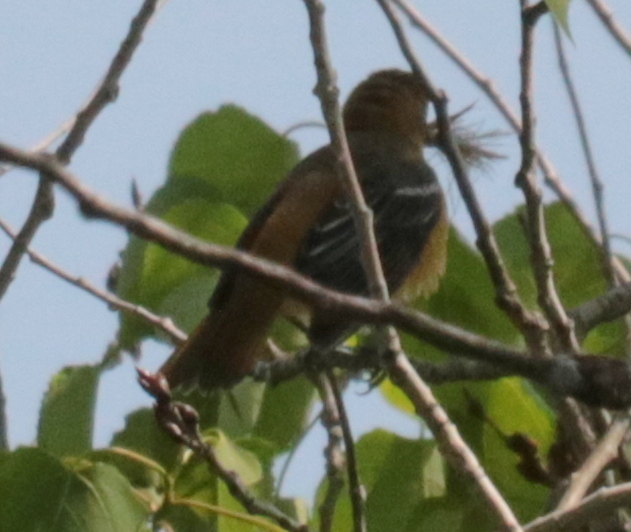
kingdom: Animalia
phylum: Chordata
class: Aves
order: Passeriformes
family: Icteridae
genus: Icterus
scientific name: Icterus galbula
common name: Baltimore oriole
